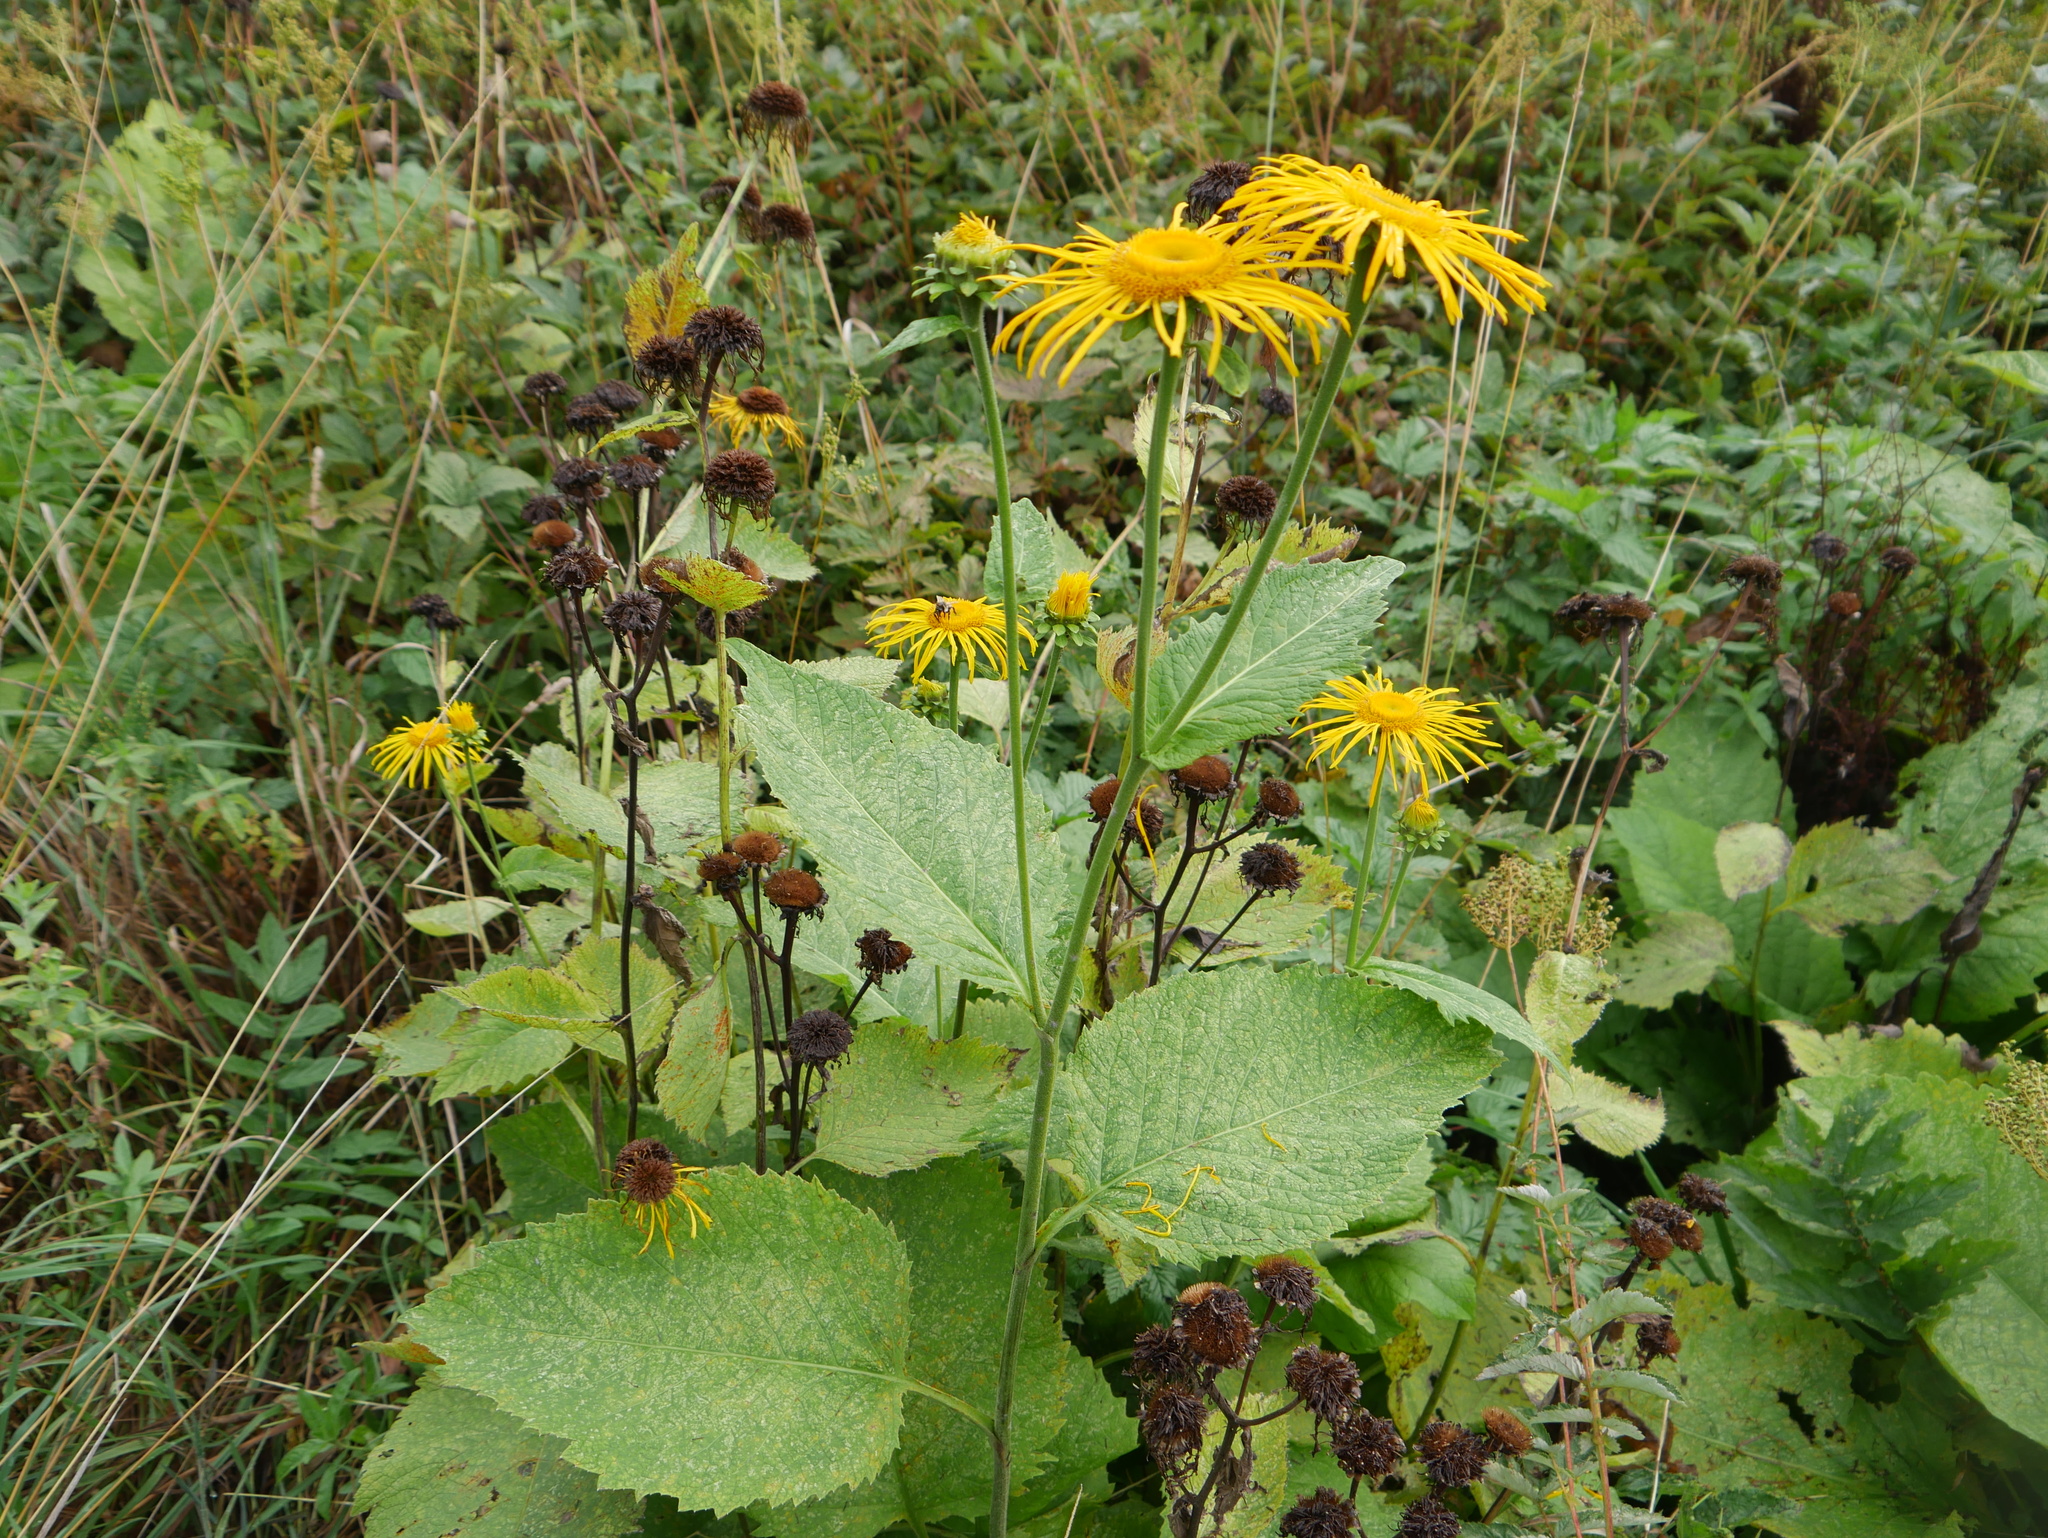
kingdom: Plantae
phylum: Tracheophyta
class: Magnoliopsida
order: Asterales
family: Asteraceae
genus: Telekia
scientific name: Telekia speciosa
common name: Yellow oxeye
